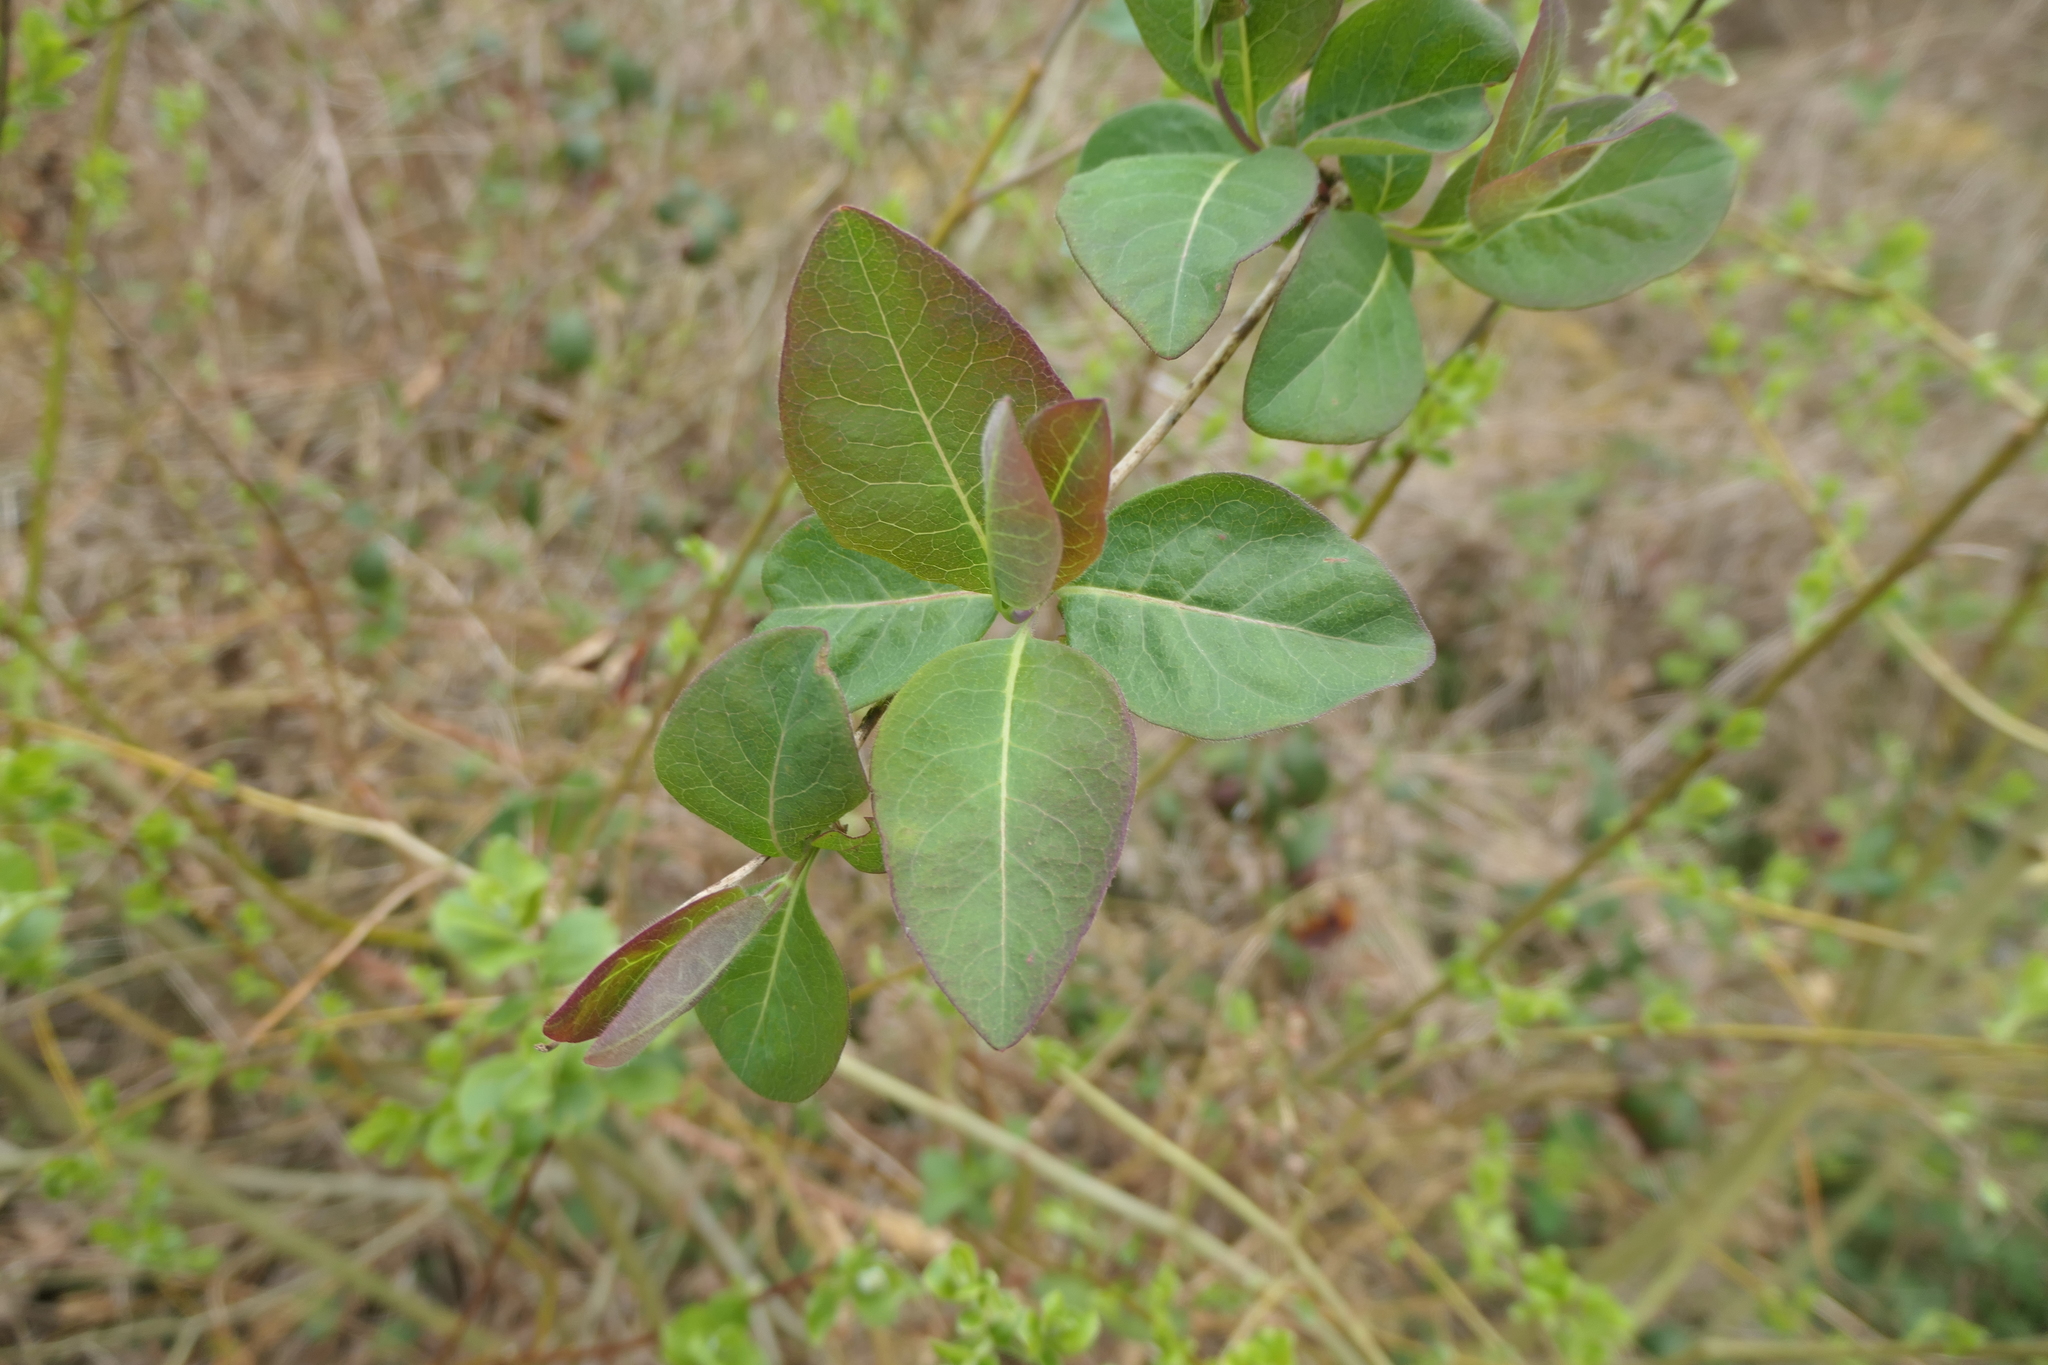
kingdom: Plantae
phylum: Tracheophyta
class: Magnoliopsida
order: Dipsacales
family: Caprifoliaceae
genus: Lonicera
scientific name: Lonicera periclymenum
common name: European honeysuckle
